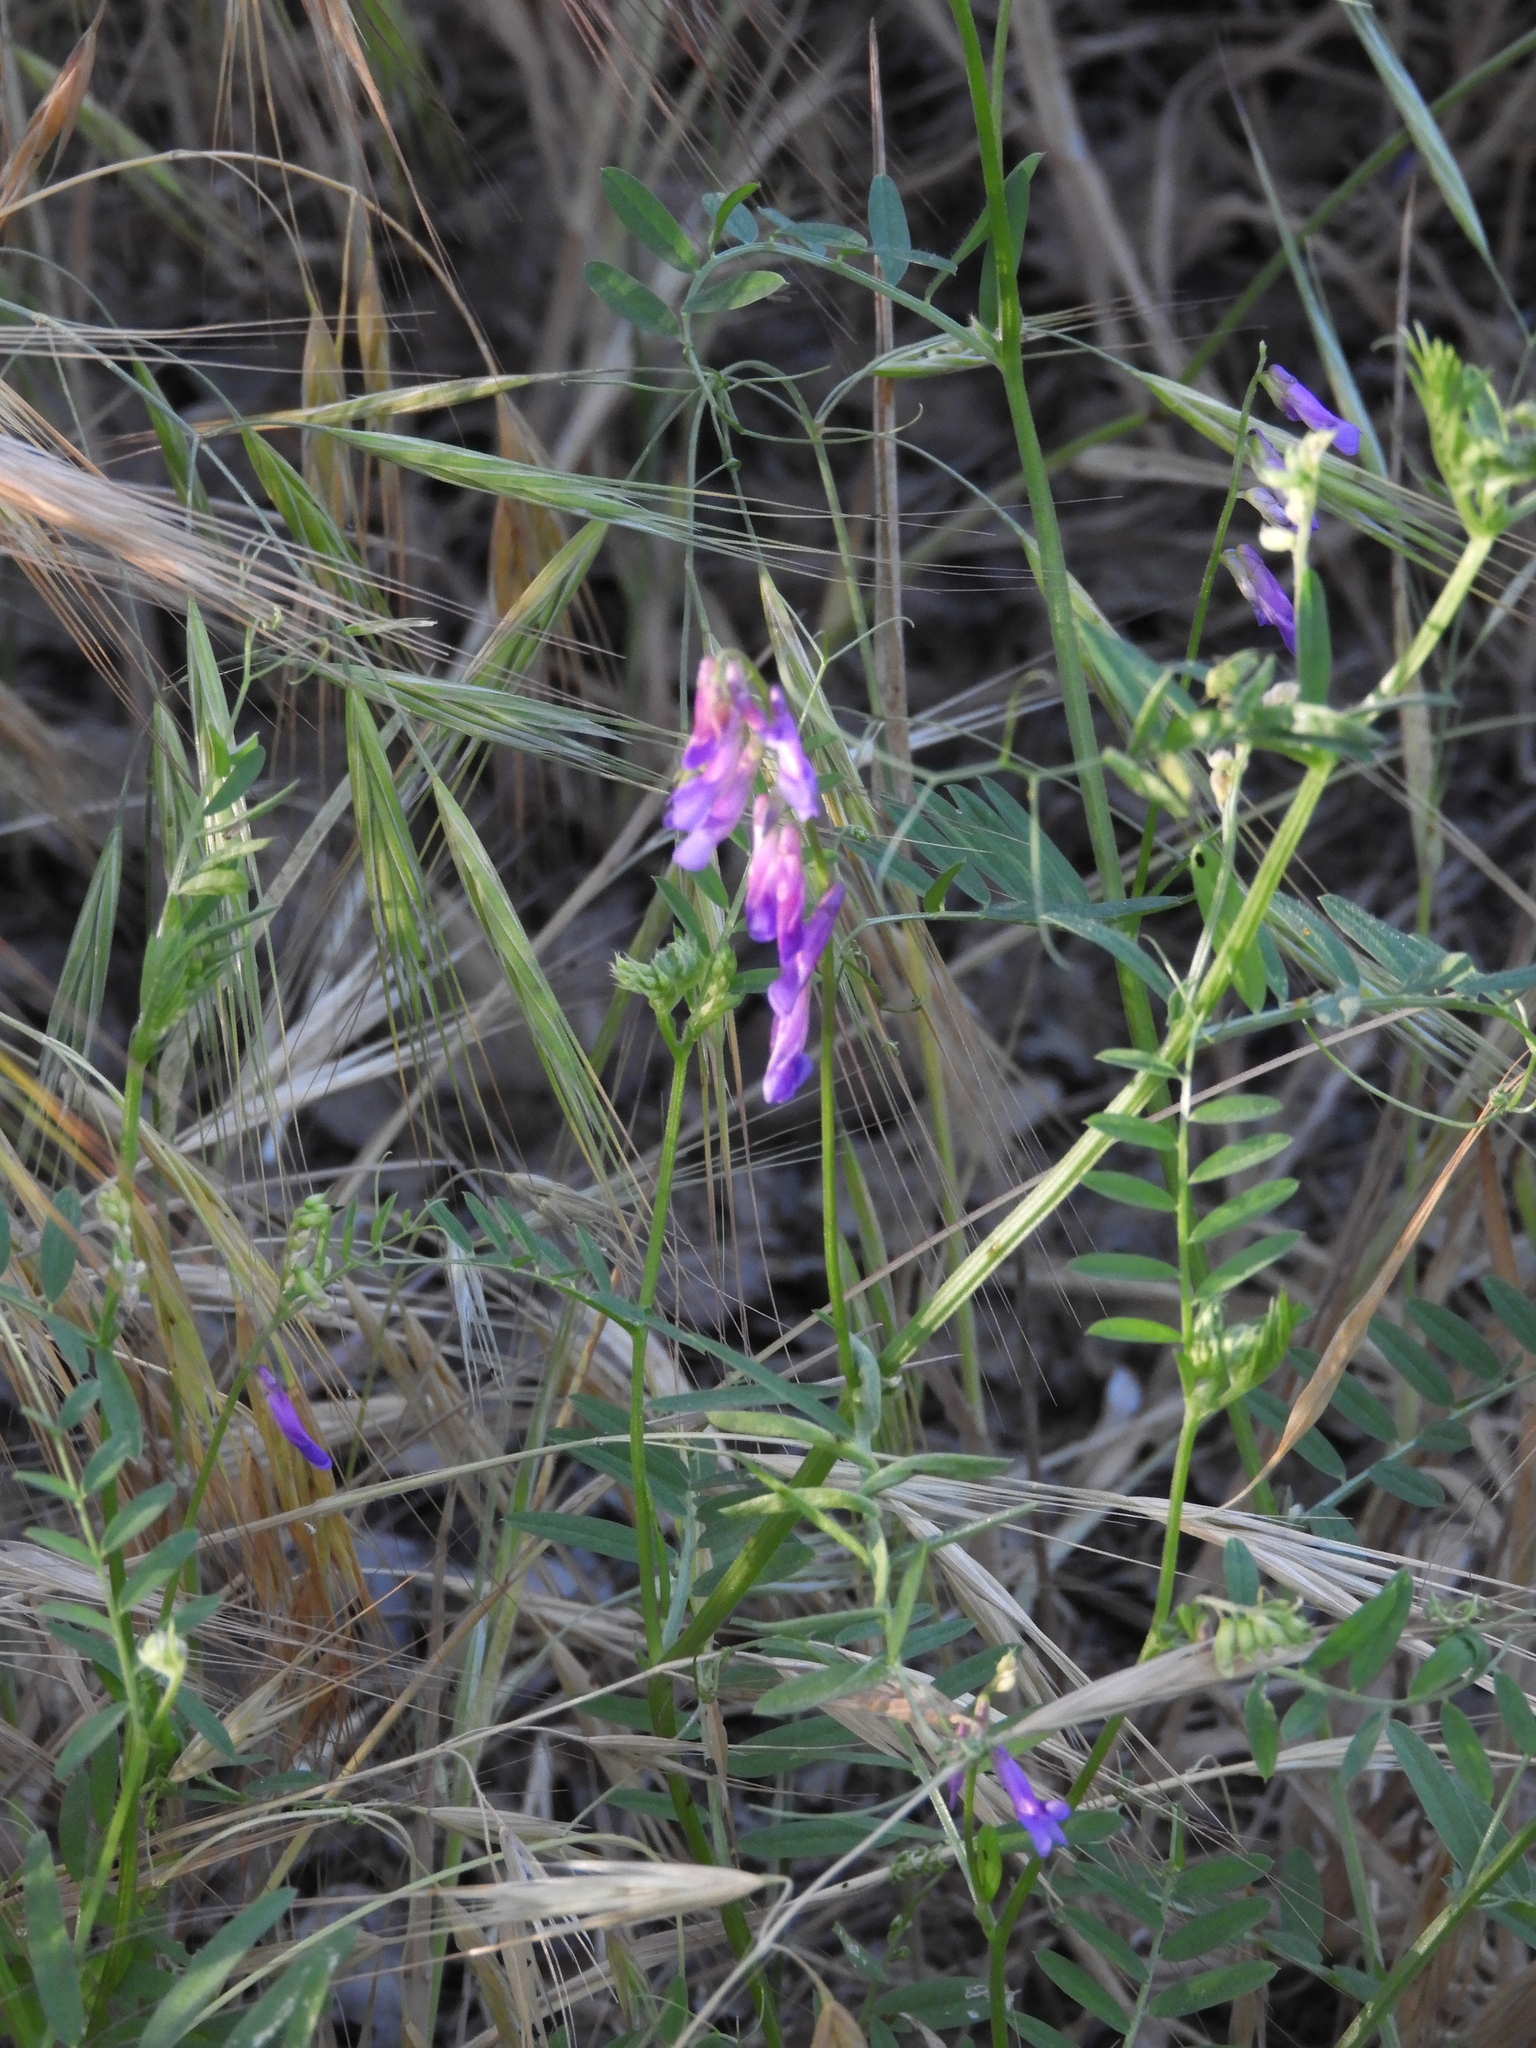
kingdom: Plantae
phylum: Tracheophyta
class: Magnoliopsida
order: Fabales
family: Fabaceae
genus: Vicia
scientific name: Vicia villosa
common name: Fodder vetch
